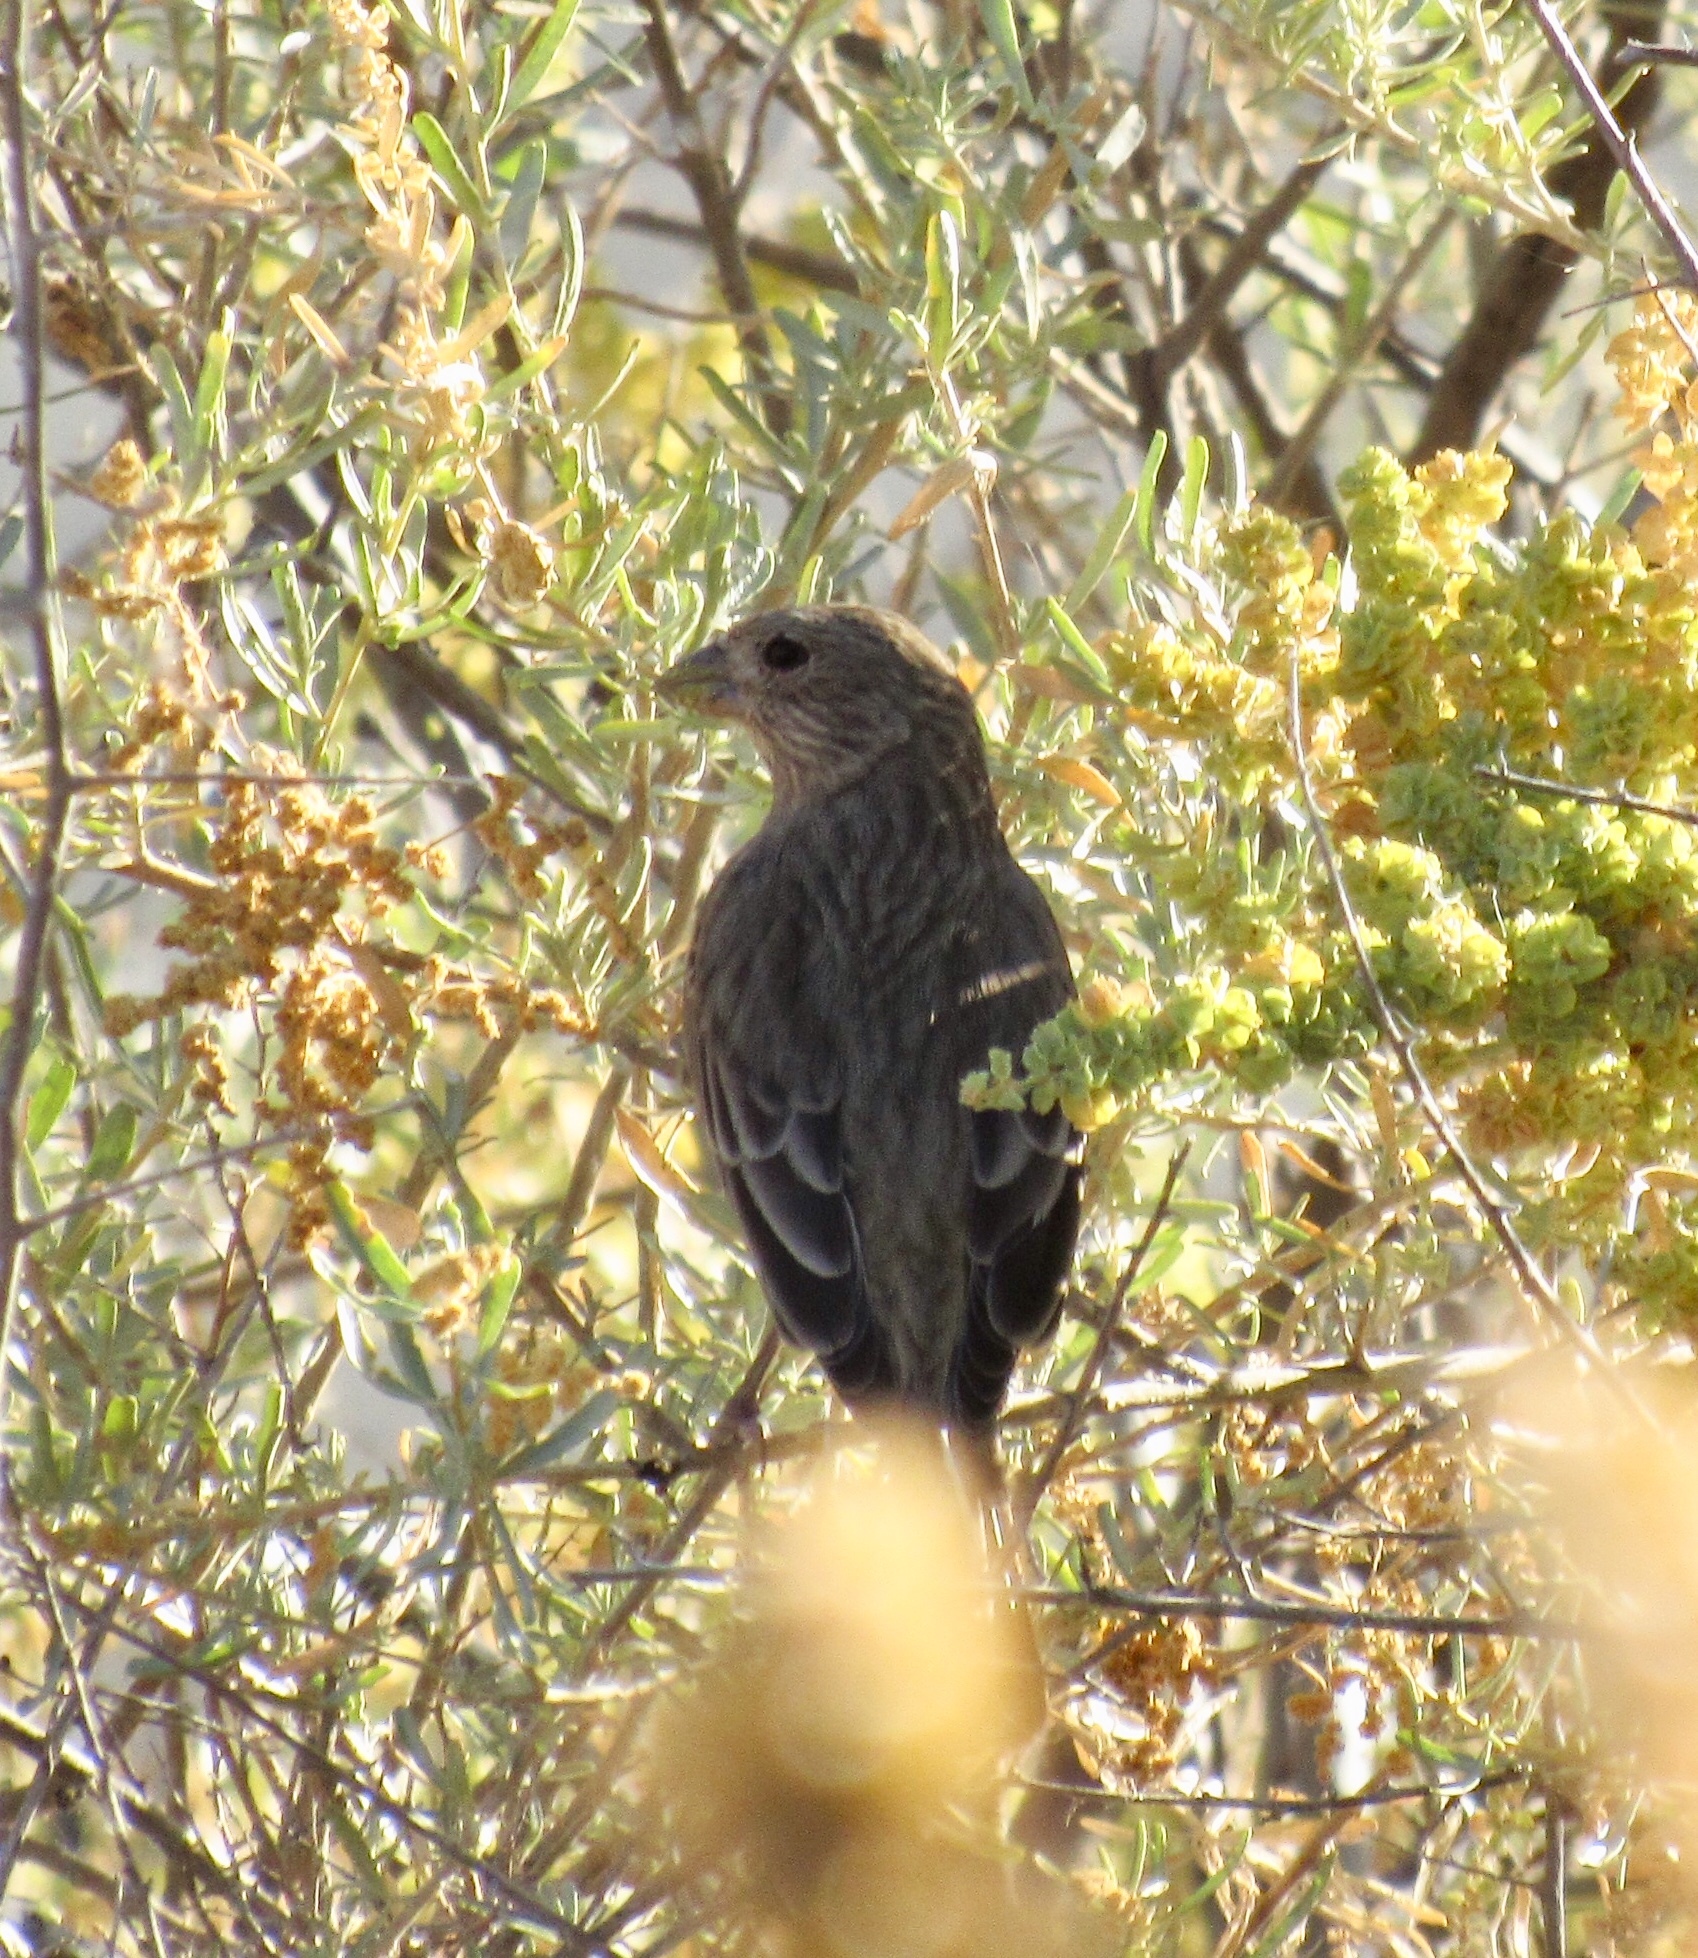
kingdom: Animalia
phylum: Chordata
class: Aves
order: Passeriformes
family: Fringillidae
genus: Haemorhous
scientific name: Haemorhous mexicanus
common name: House finch
